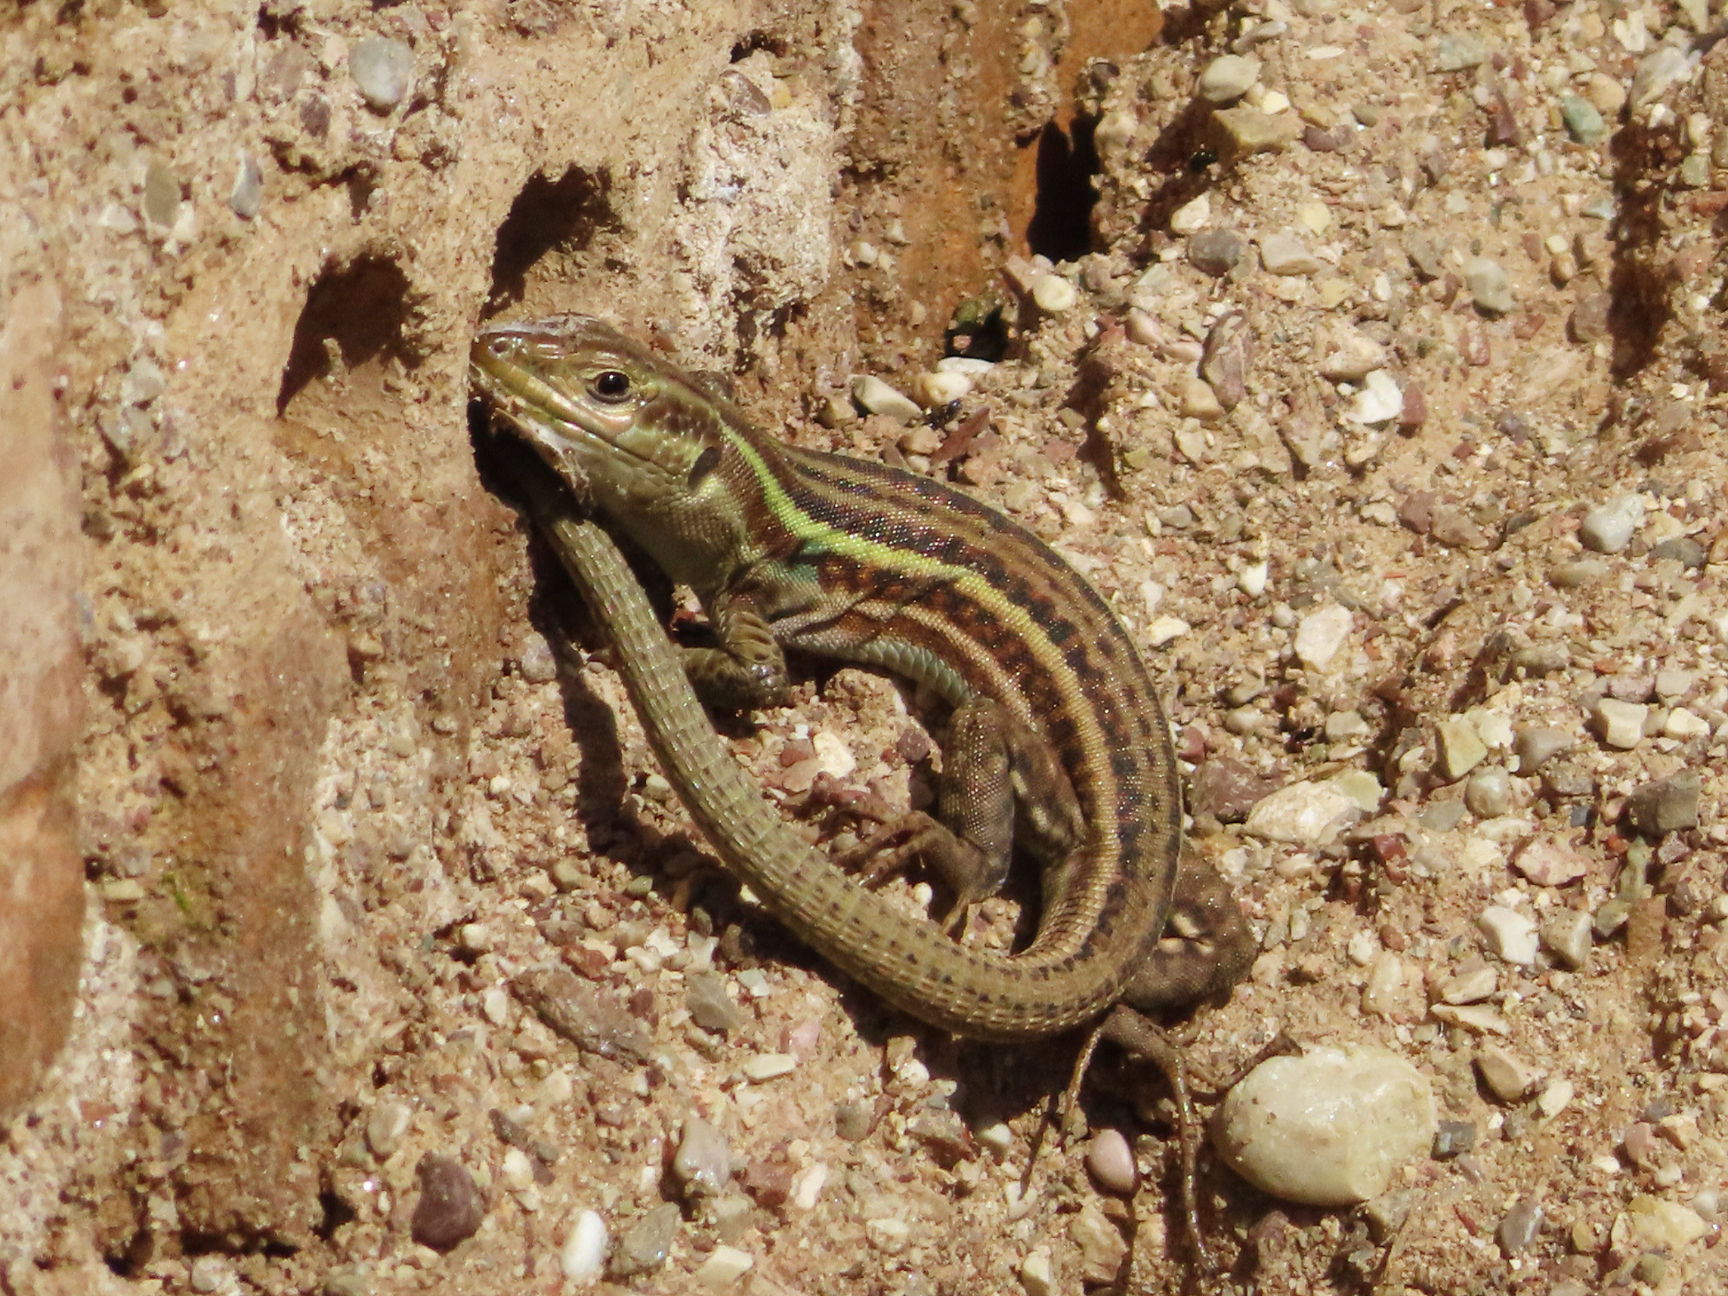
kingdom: Animalia
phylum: Chordata
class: Squamata
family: Lacertidae
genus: Podarcis
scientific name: Podarcis peloponnesiacus
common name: Peloponnese wall lizard
